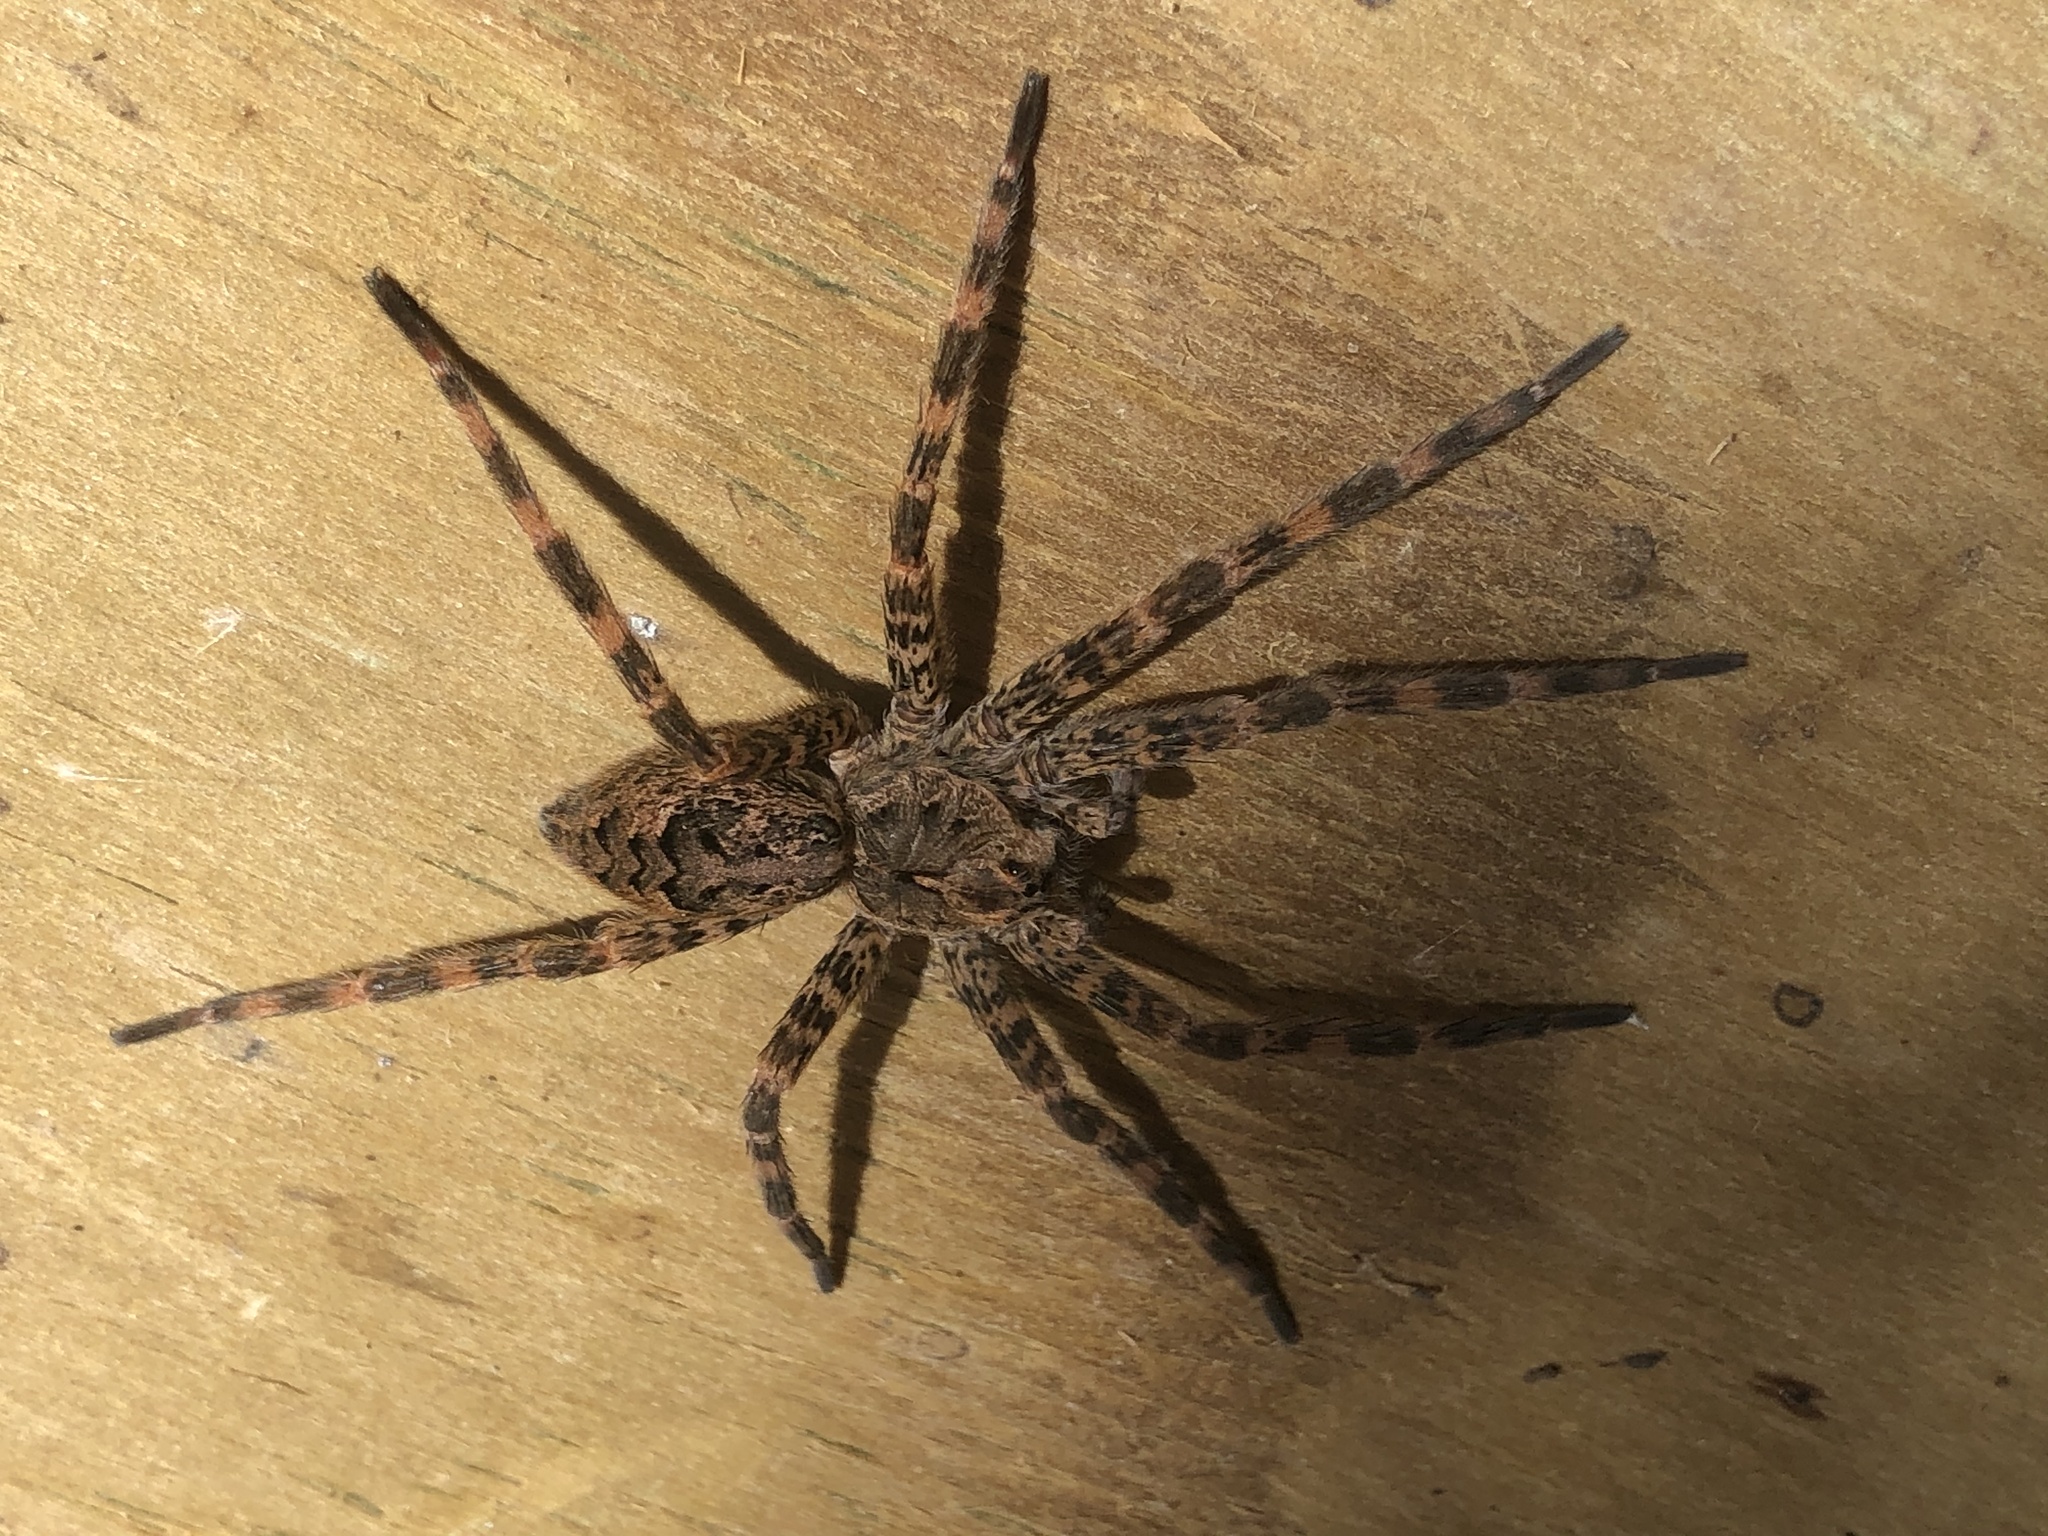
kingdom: Animalia
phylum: Arthropoda
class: Arachnida
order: Araneae
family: Pisauridae
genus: Dolomedes
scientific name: Dolomedes tenebrosus
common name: Dark fishing spider
